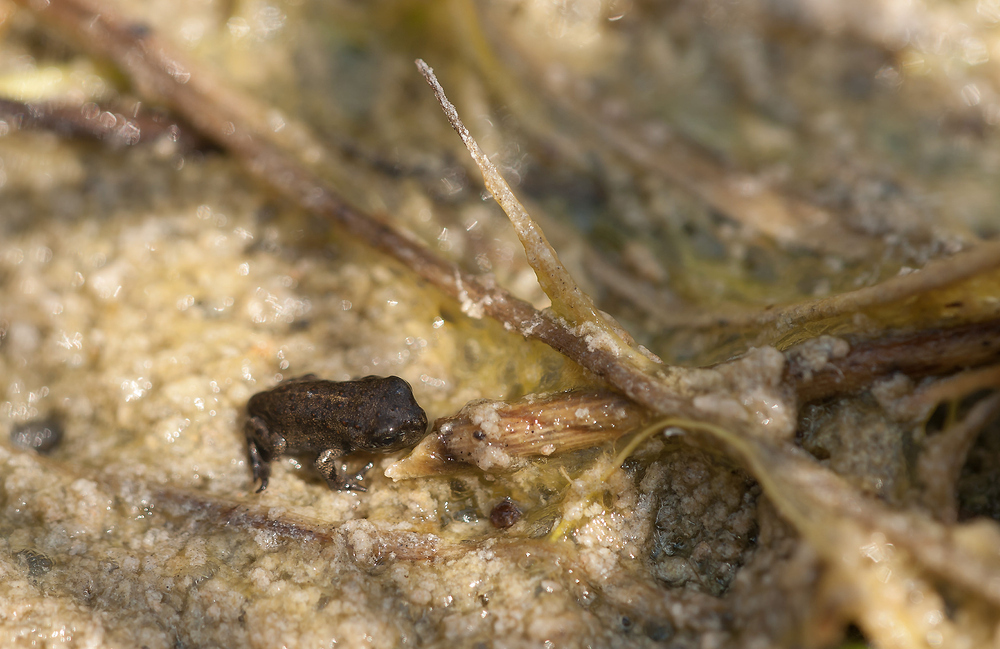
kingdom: Animalia
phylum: Chordata
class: Amphibia
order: Anura
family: Bufonidae
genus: Epidalea
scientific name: Epidalea calamita
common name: Natterjack toad
